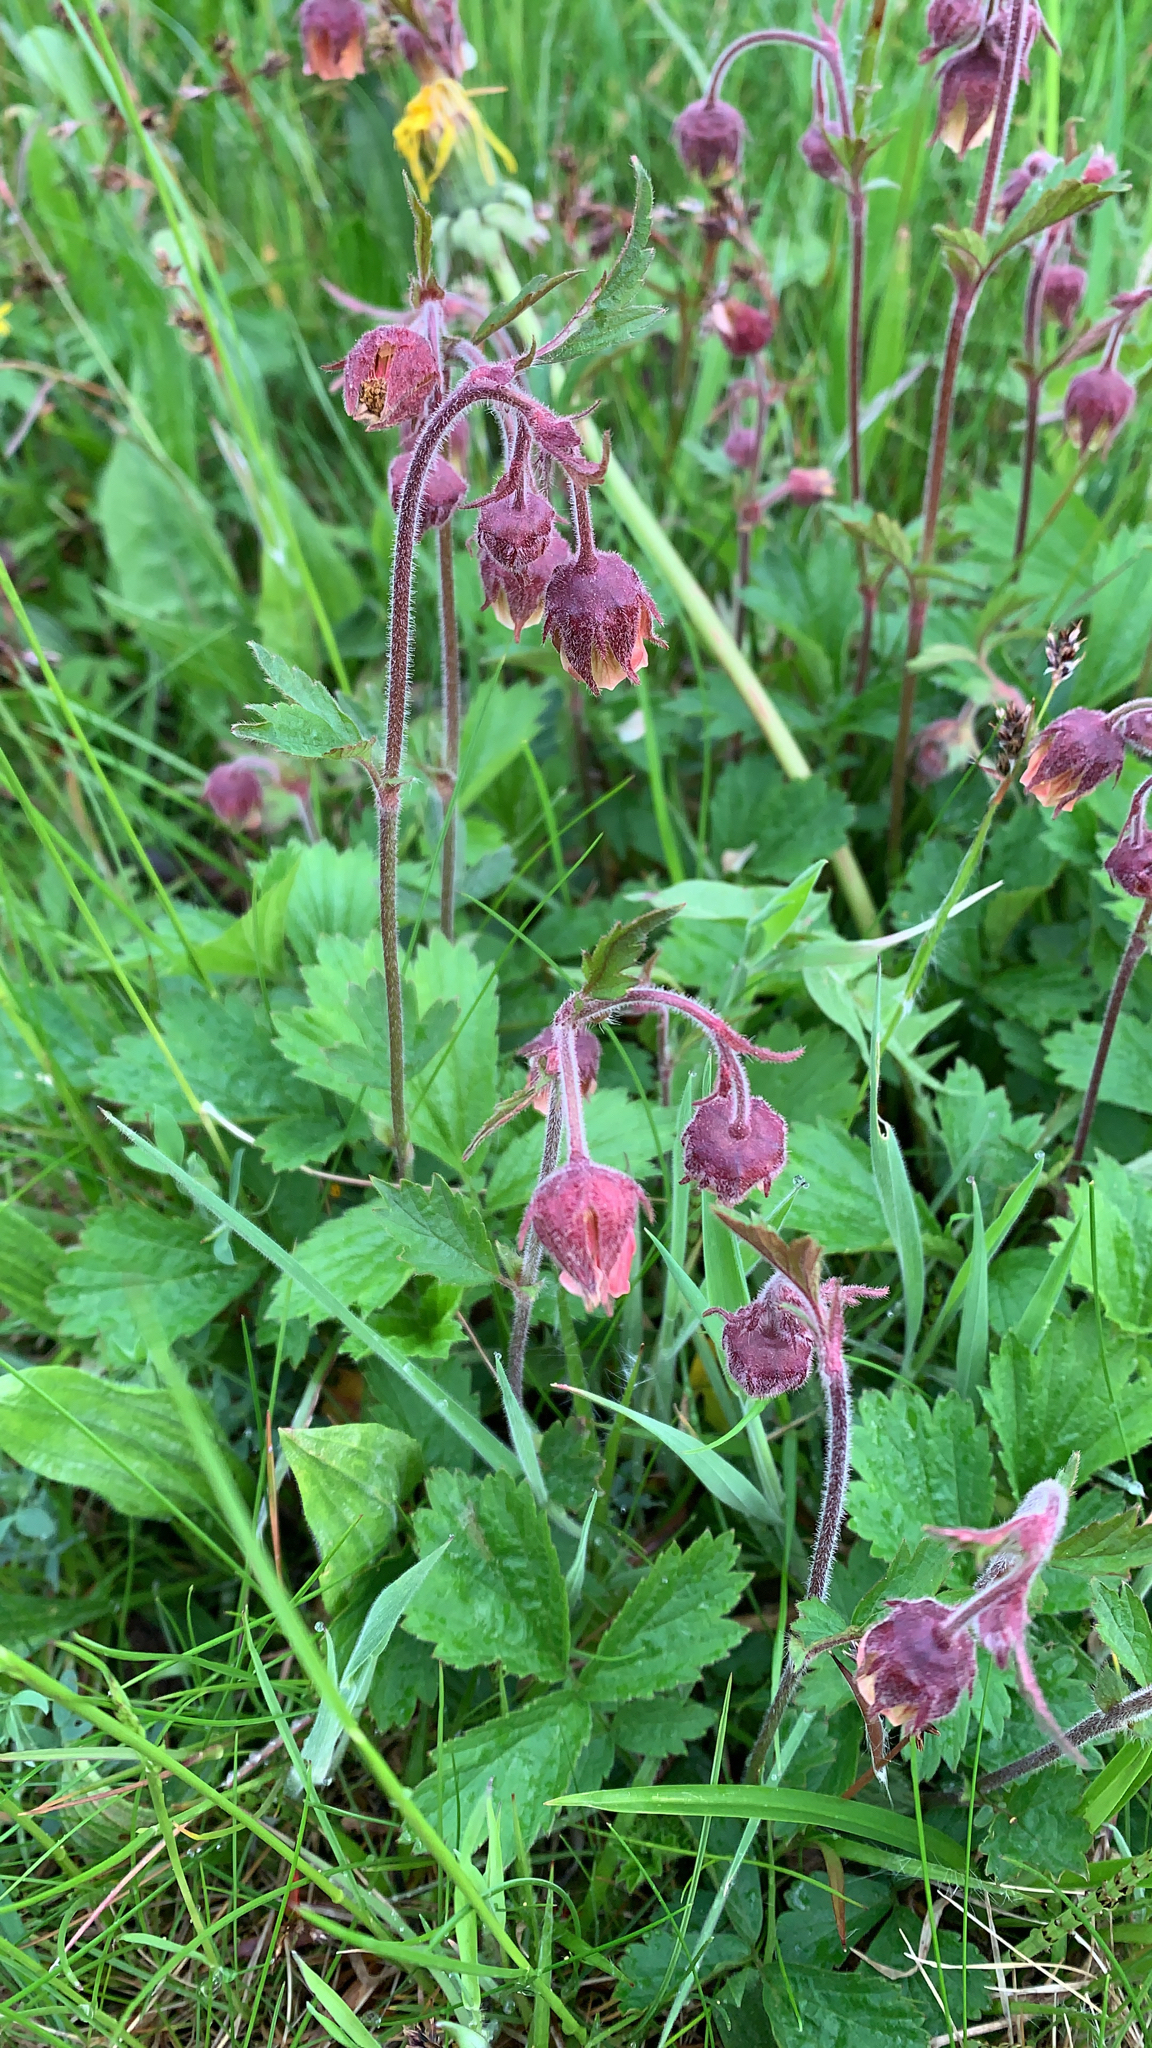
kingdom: Plantae
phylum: Tracheophyta
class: Magnoliopsida
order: Rosales
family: Rosaceae
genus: Geum
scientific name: Geum rivale
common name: Water avens
